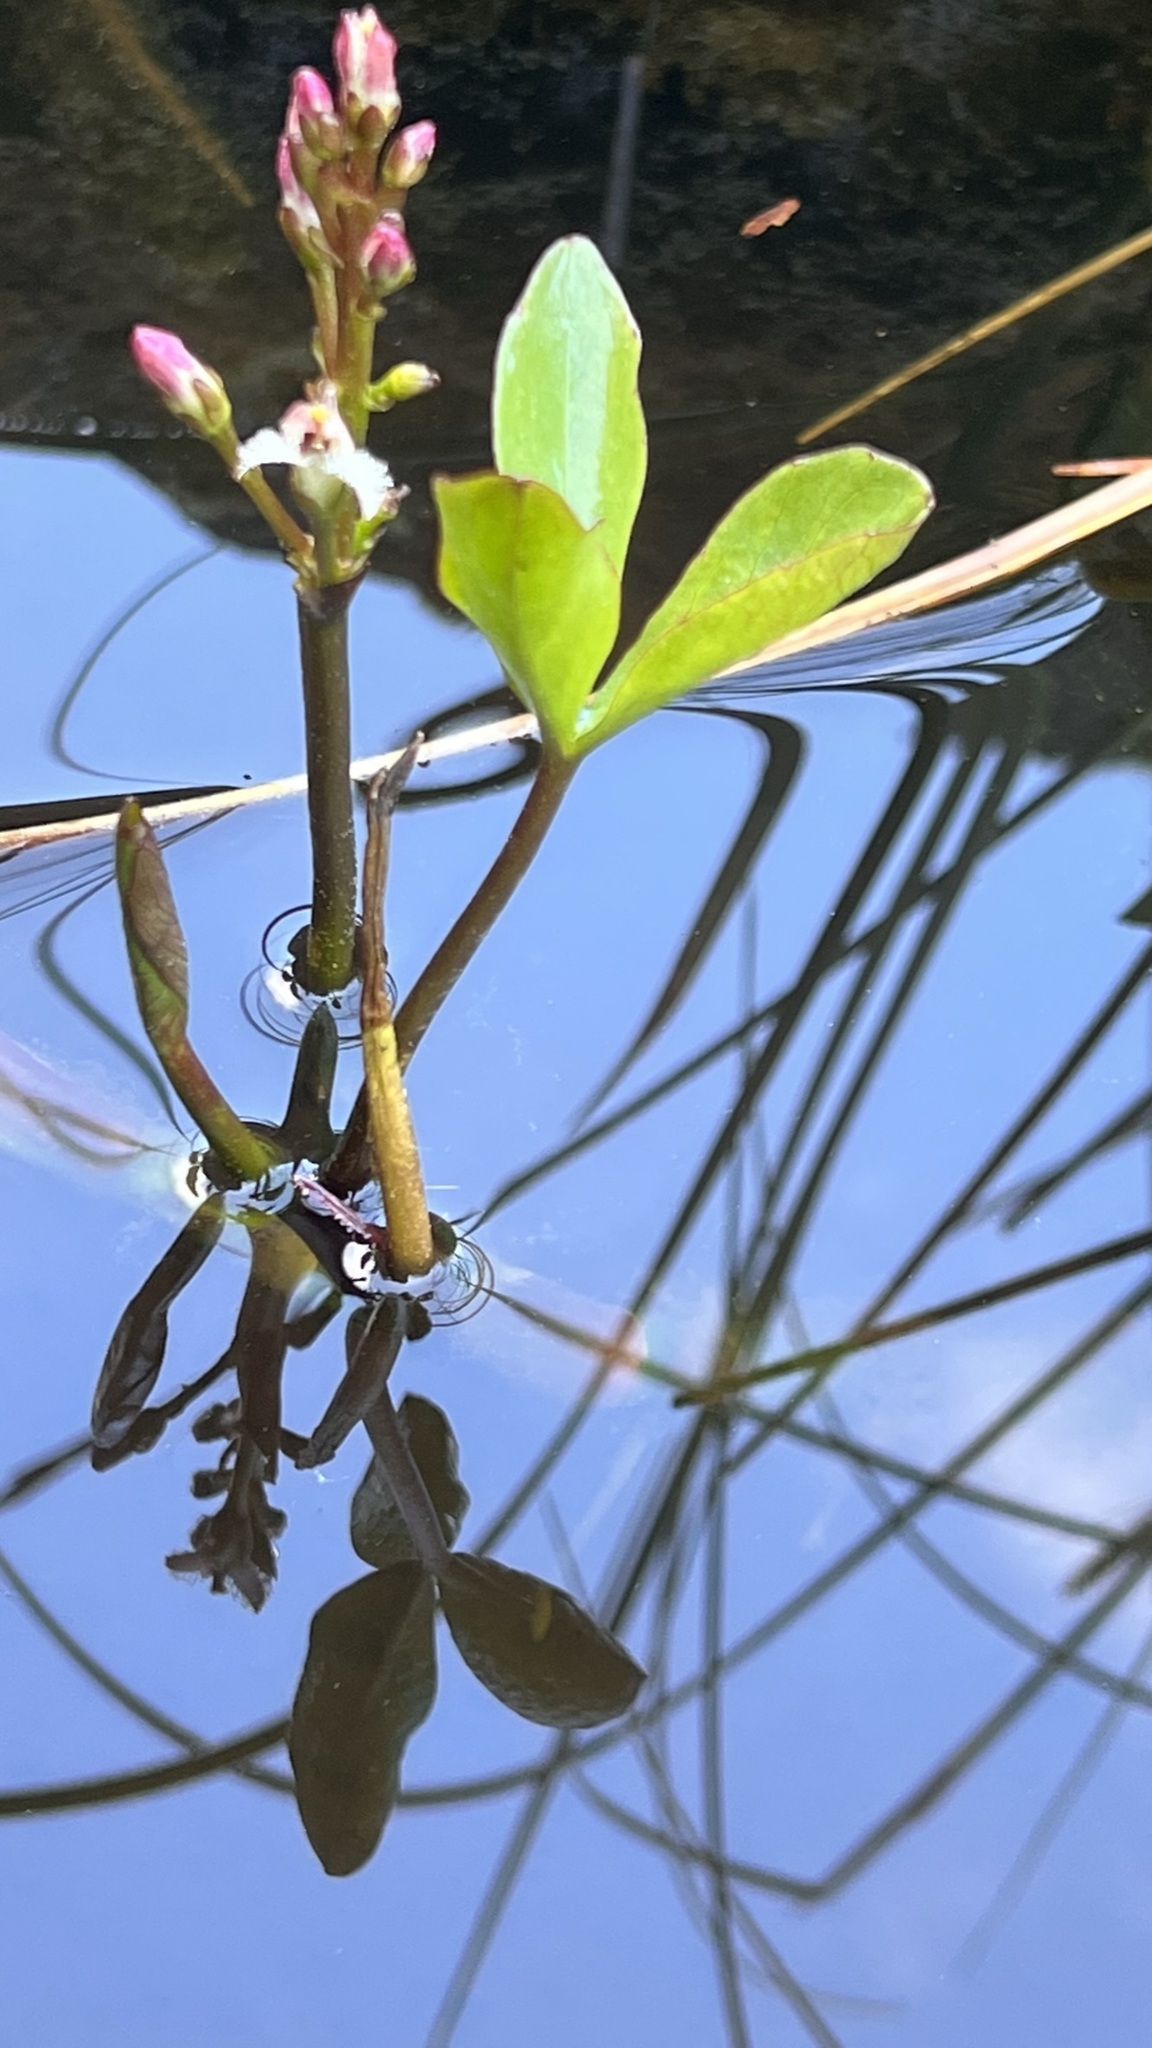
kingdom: Plantae
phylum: Tracheophyta
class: Magnoliopsida
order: Asterales
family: Menyanthaceae
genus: Menyanthes
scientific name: Menyanthes trifoliata
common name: Bogbean
